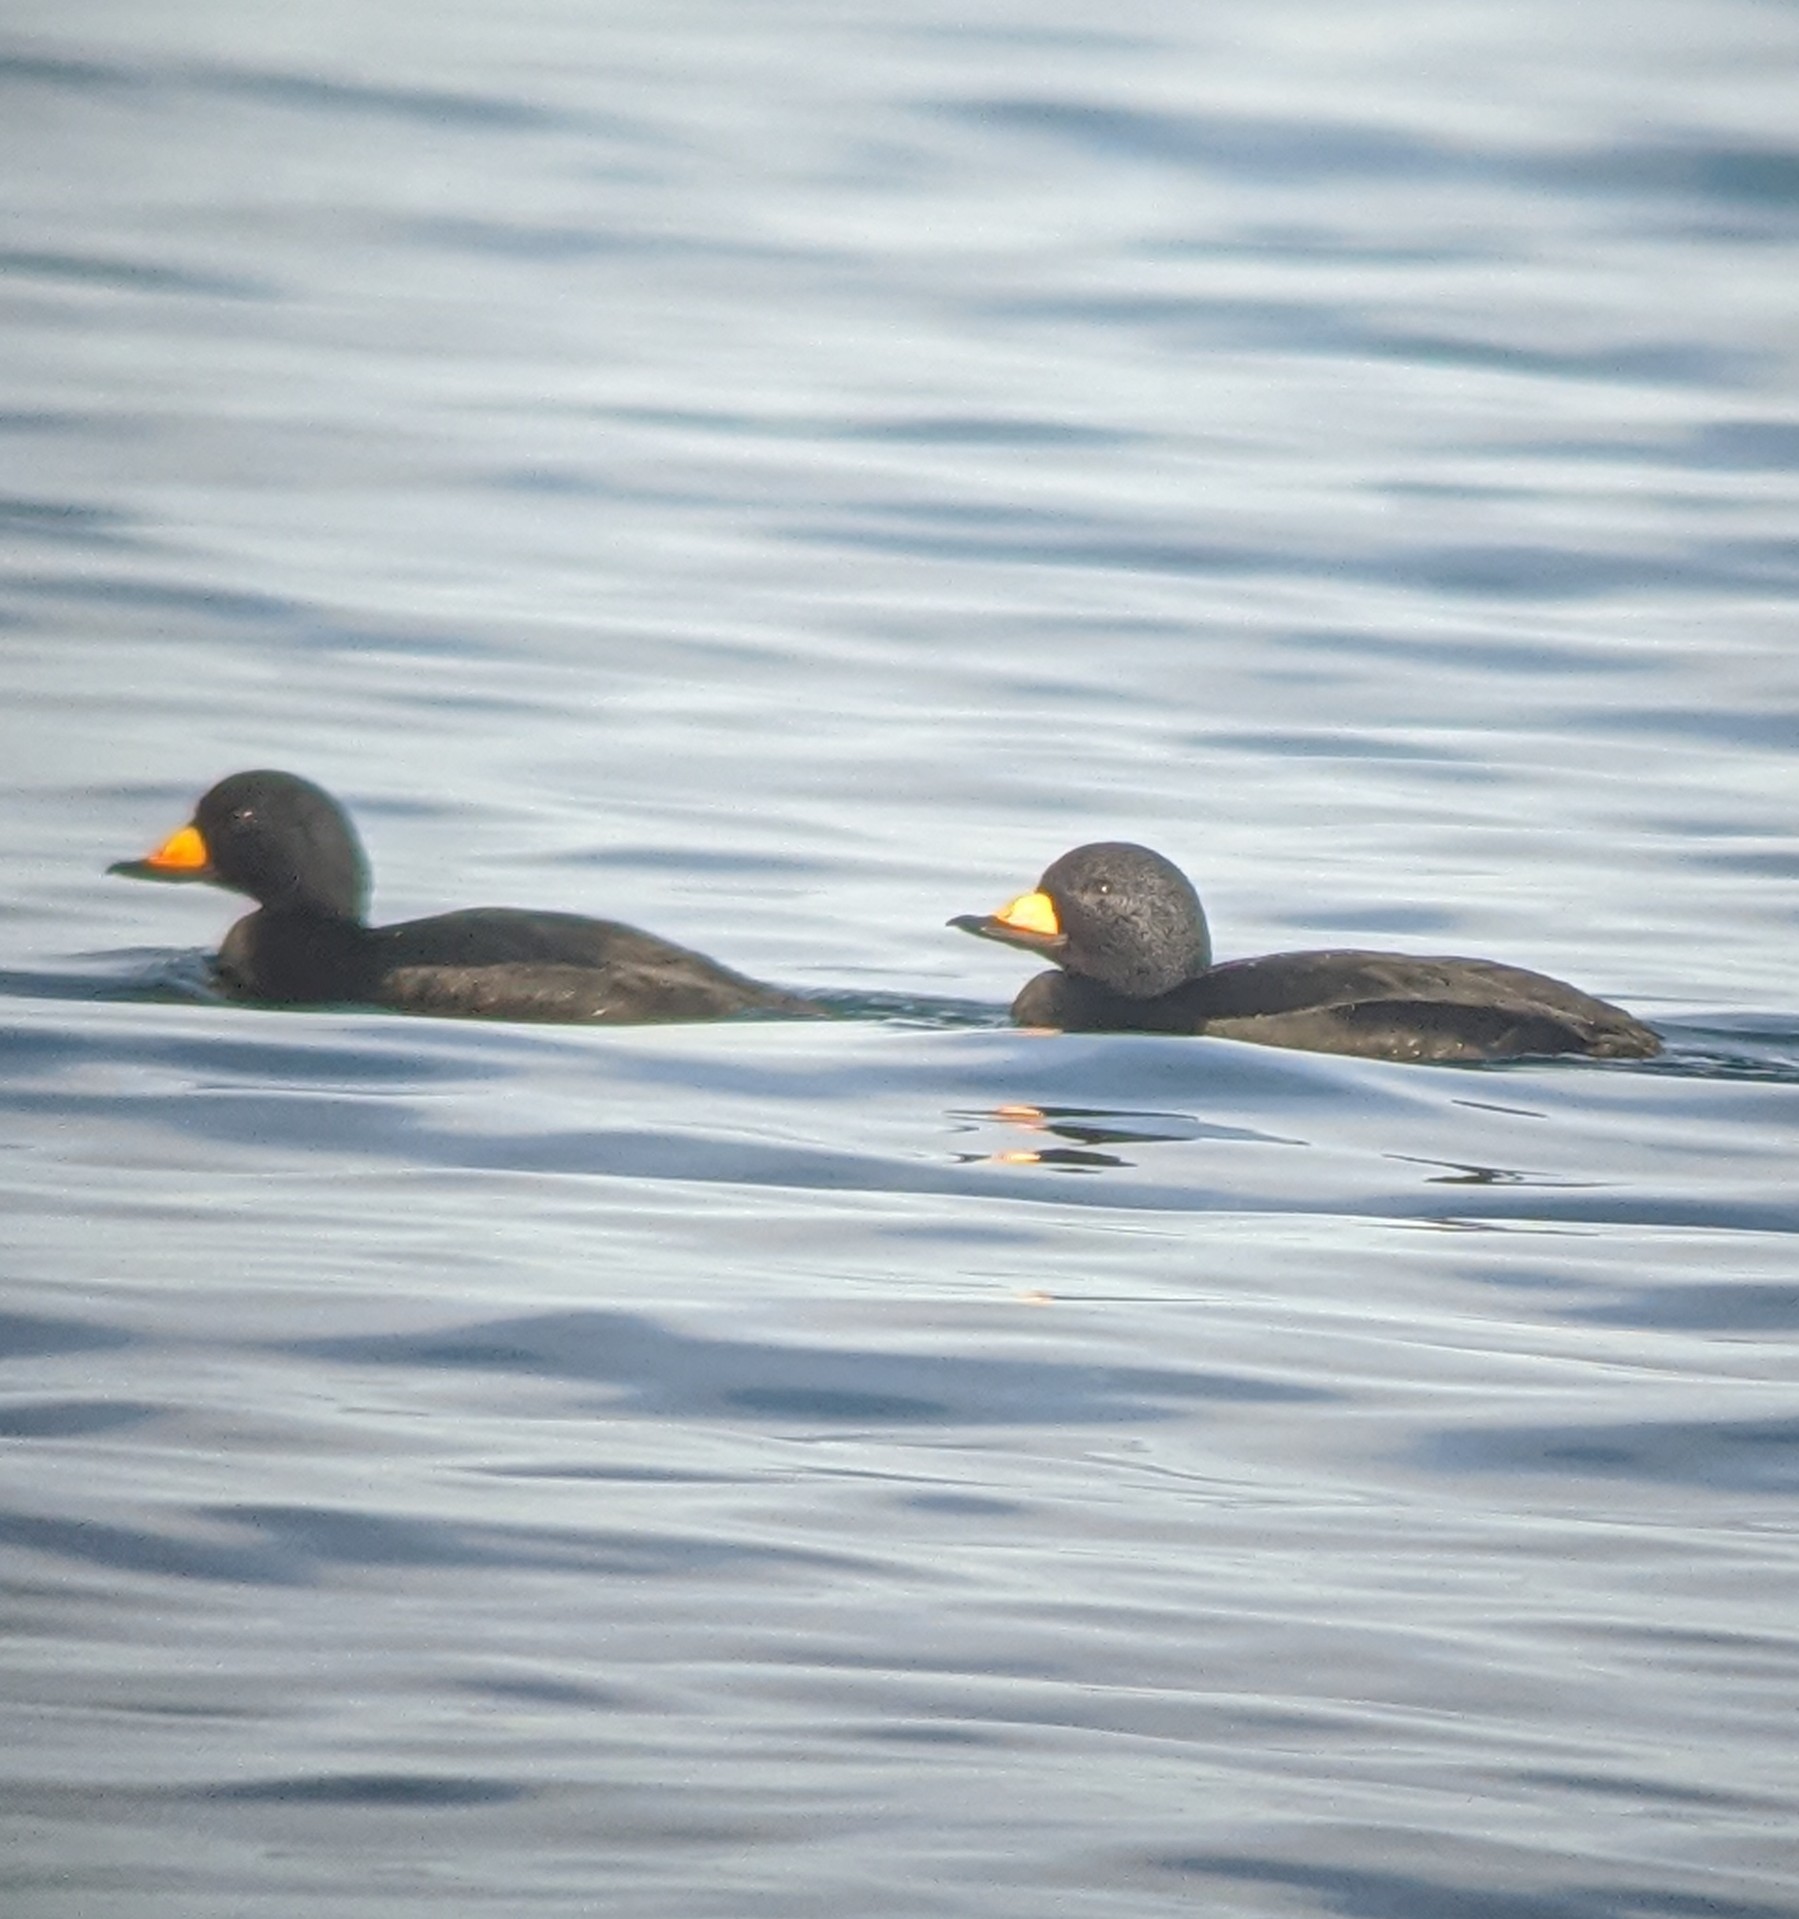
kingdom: Animalia
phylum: Chordata
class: Aves
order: Anseriformes
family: Anatidae
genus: Melanitta
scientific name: Melanitta americana
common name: Black scoter
